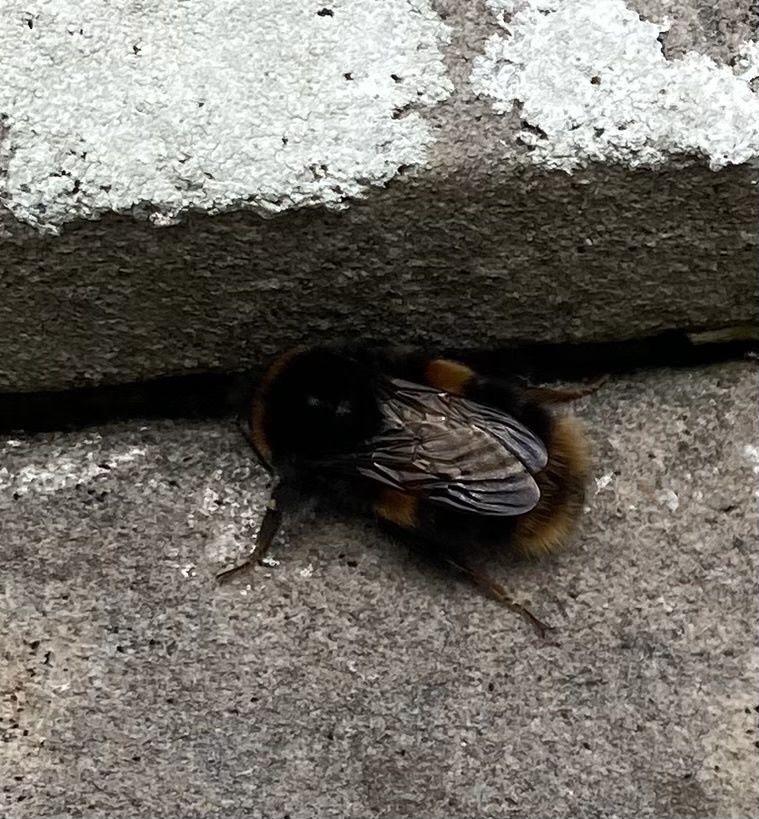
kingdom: Animalia
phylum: Arthropoda
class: Insecta
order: Hymenoptera
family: Apidae
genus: Bombus
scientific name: Bombus terrestris
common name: Buff-tailed bumblebee
